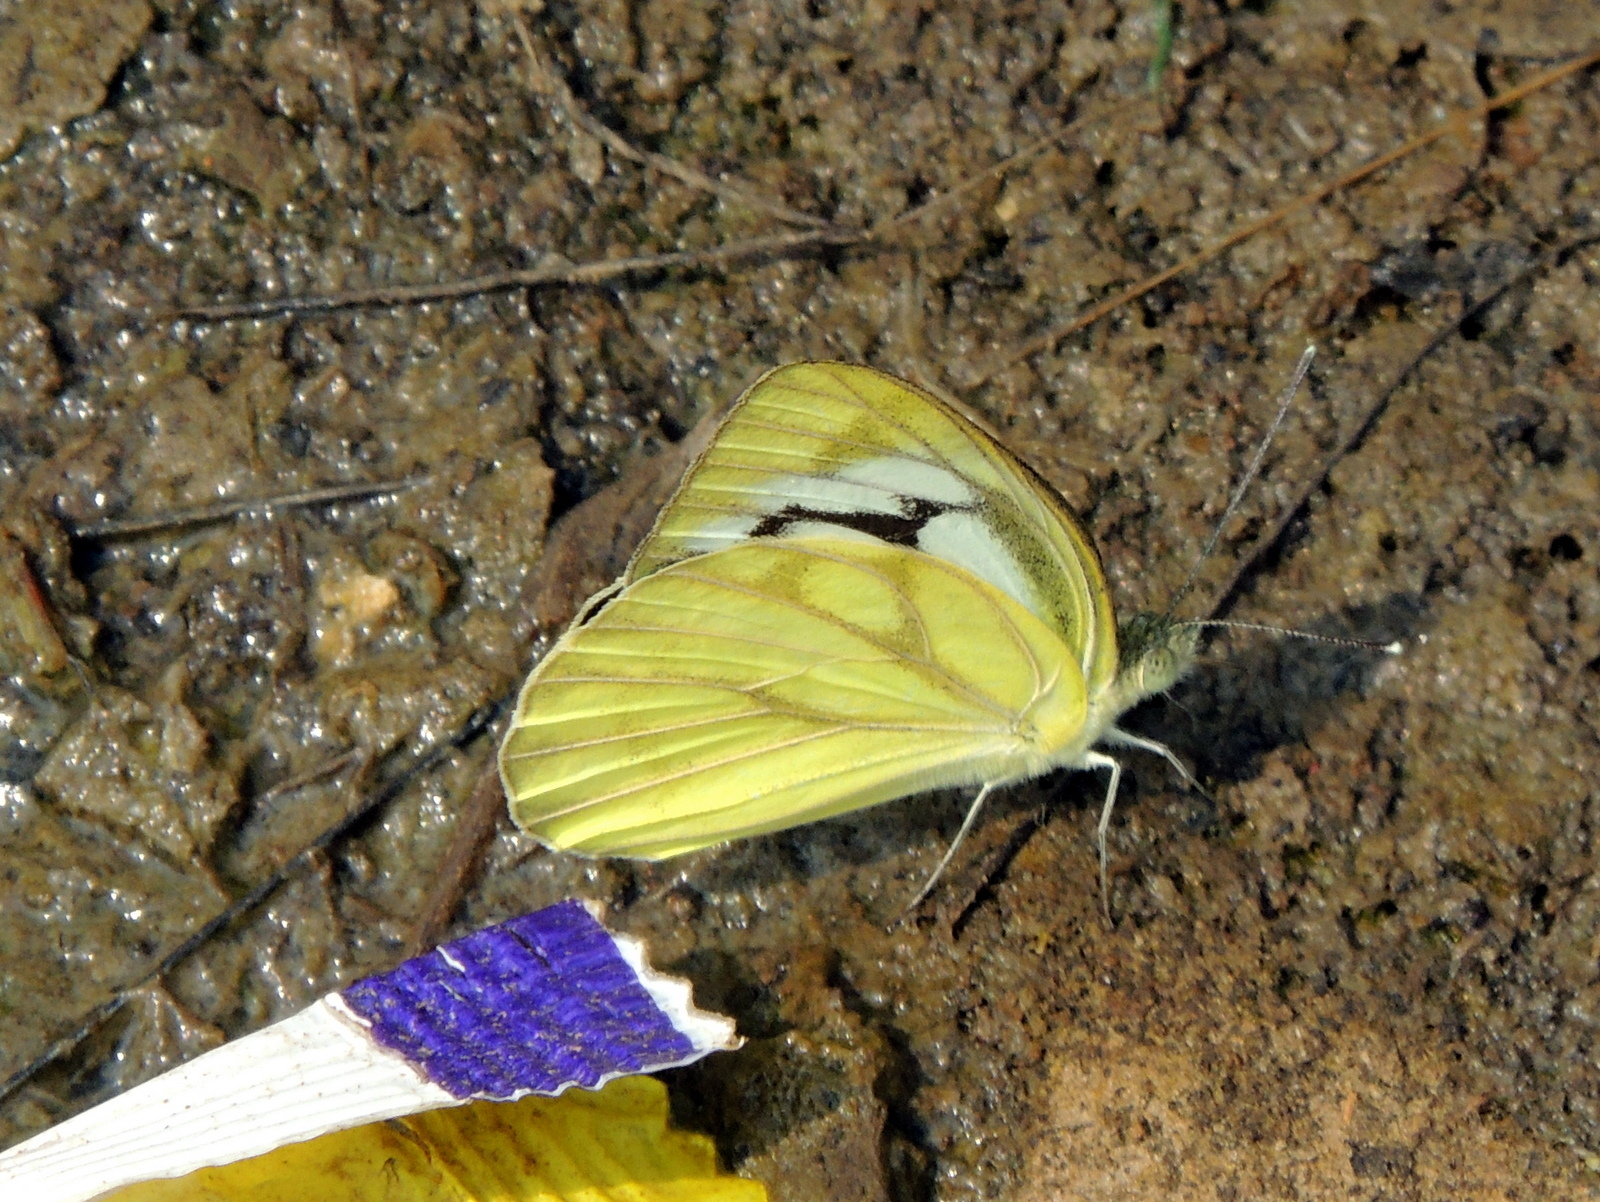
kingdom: Animalia
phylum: Arthropoda
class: Insecta
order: Lepidoptera
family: Pieridae
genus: Cepora
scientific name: Cepora nerissa
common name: Common gull
